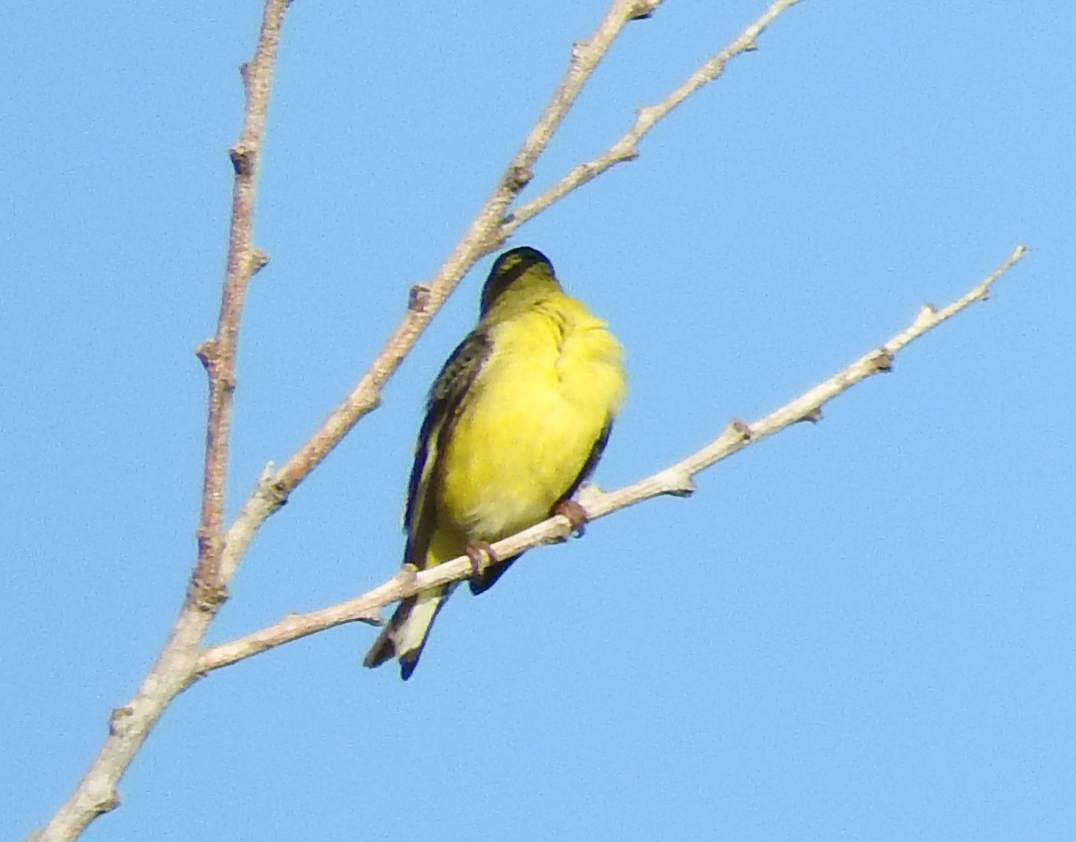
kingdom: Animalia
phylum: Chordata
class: Aves
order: Passeriformes
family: Fringillidae
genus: Spinus
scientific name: Spinus psaltria
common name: Lesser goldfinch
